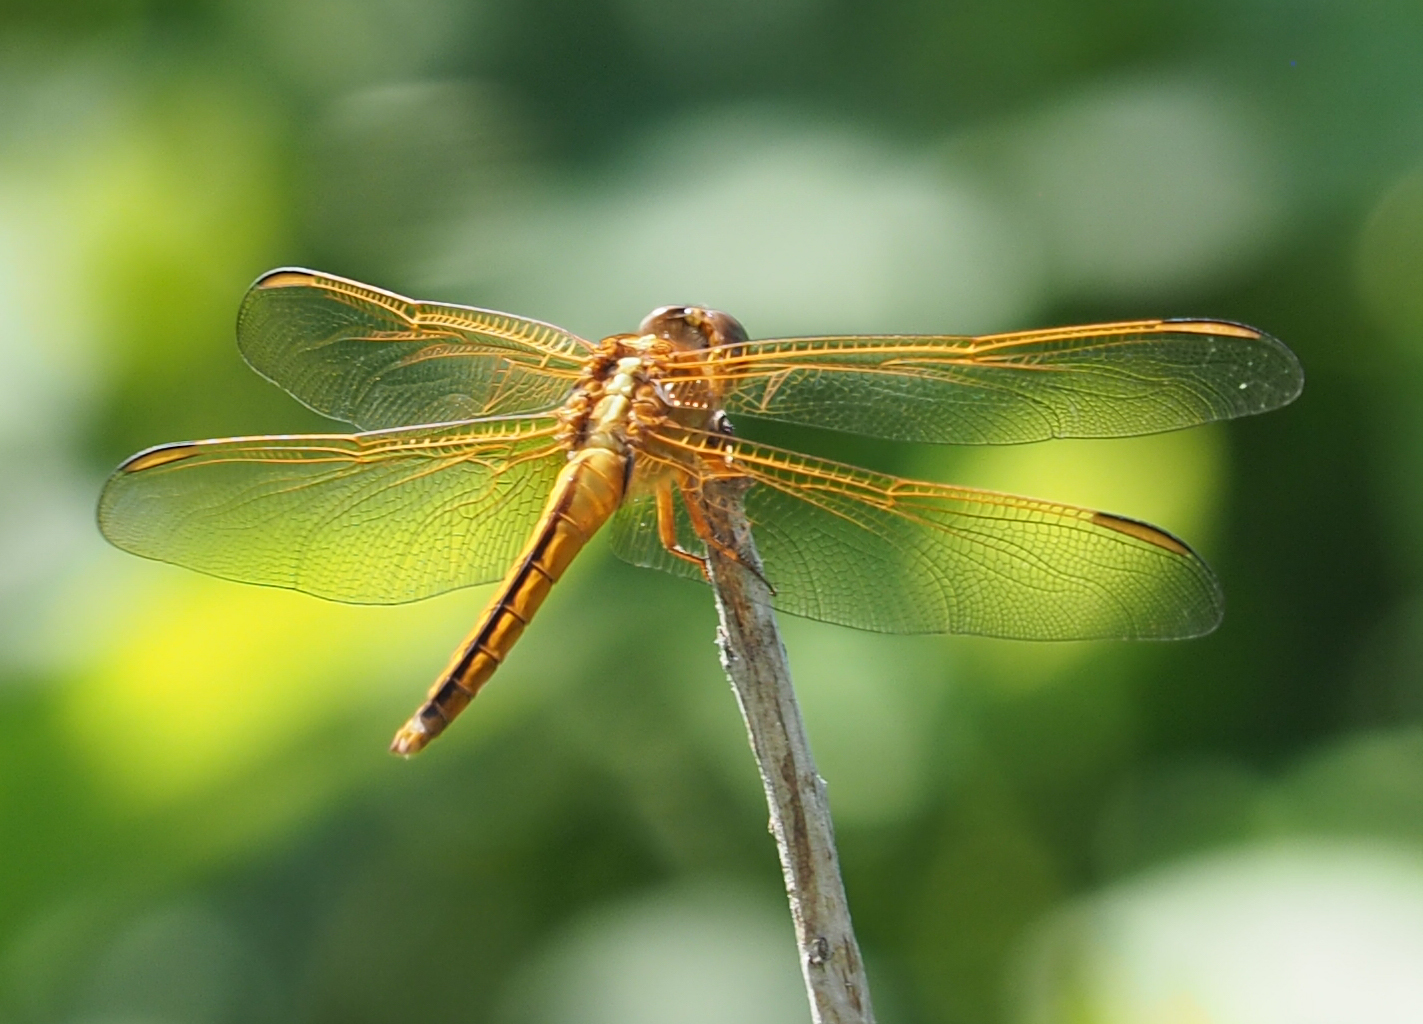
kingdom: Animalia
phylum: Arthropoda
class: Insecta
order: Odonata
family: Libellulidae
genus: Libellula
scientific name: Libellula needhami
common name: Needham's skimmer
